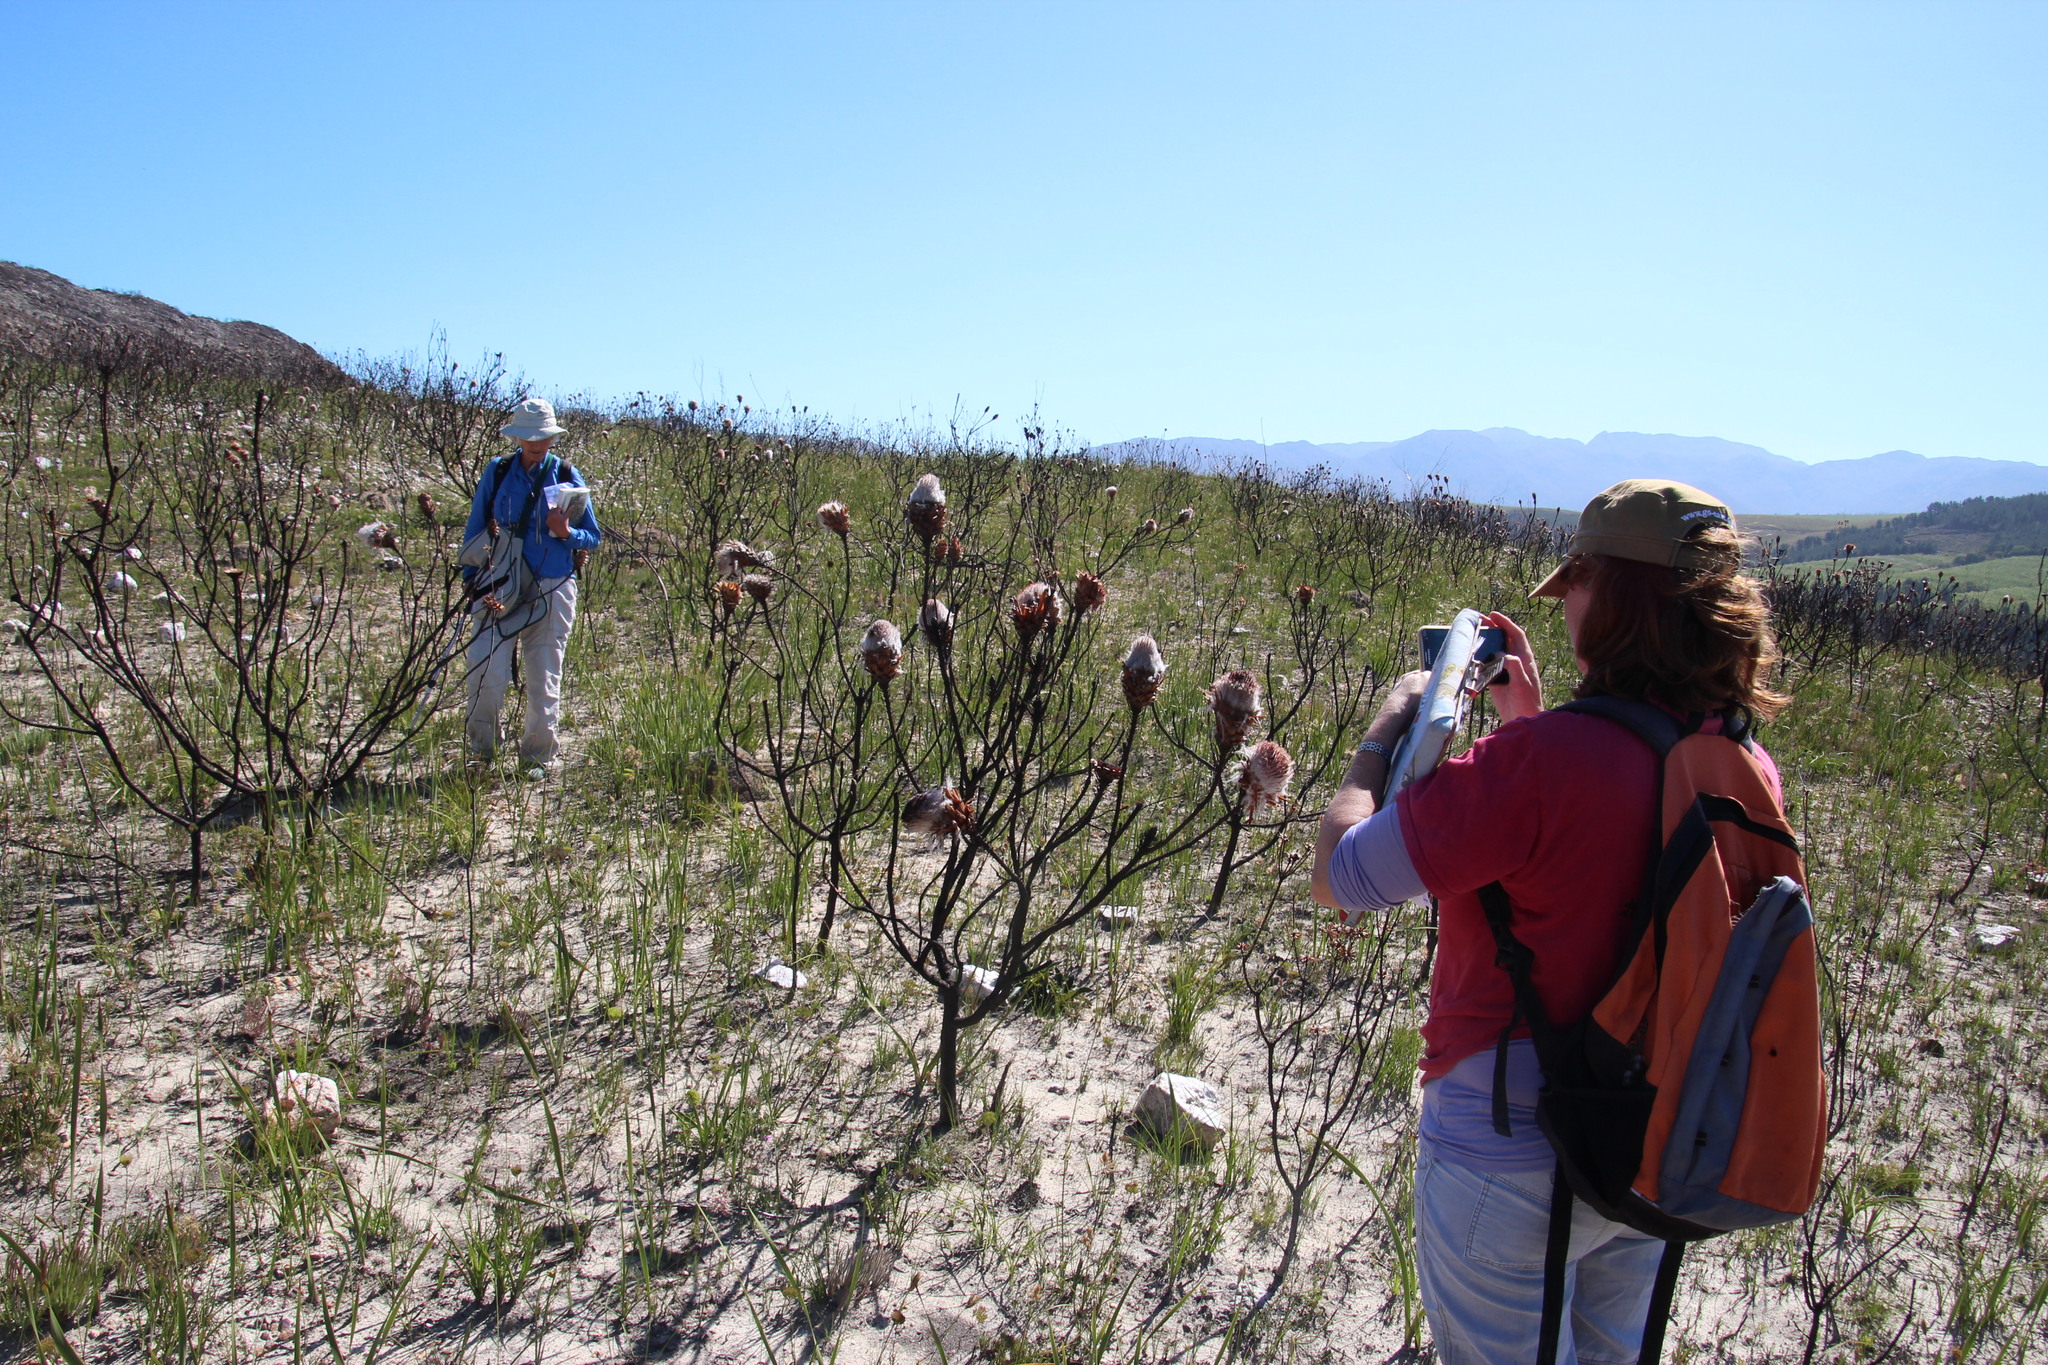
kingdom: Plantae
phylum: Tracheophyta
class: Magnoliopsida
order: Proteales
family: Proteaceae
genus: Protea
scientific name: Protea longifolia
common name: Long-leaf sugarbush
